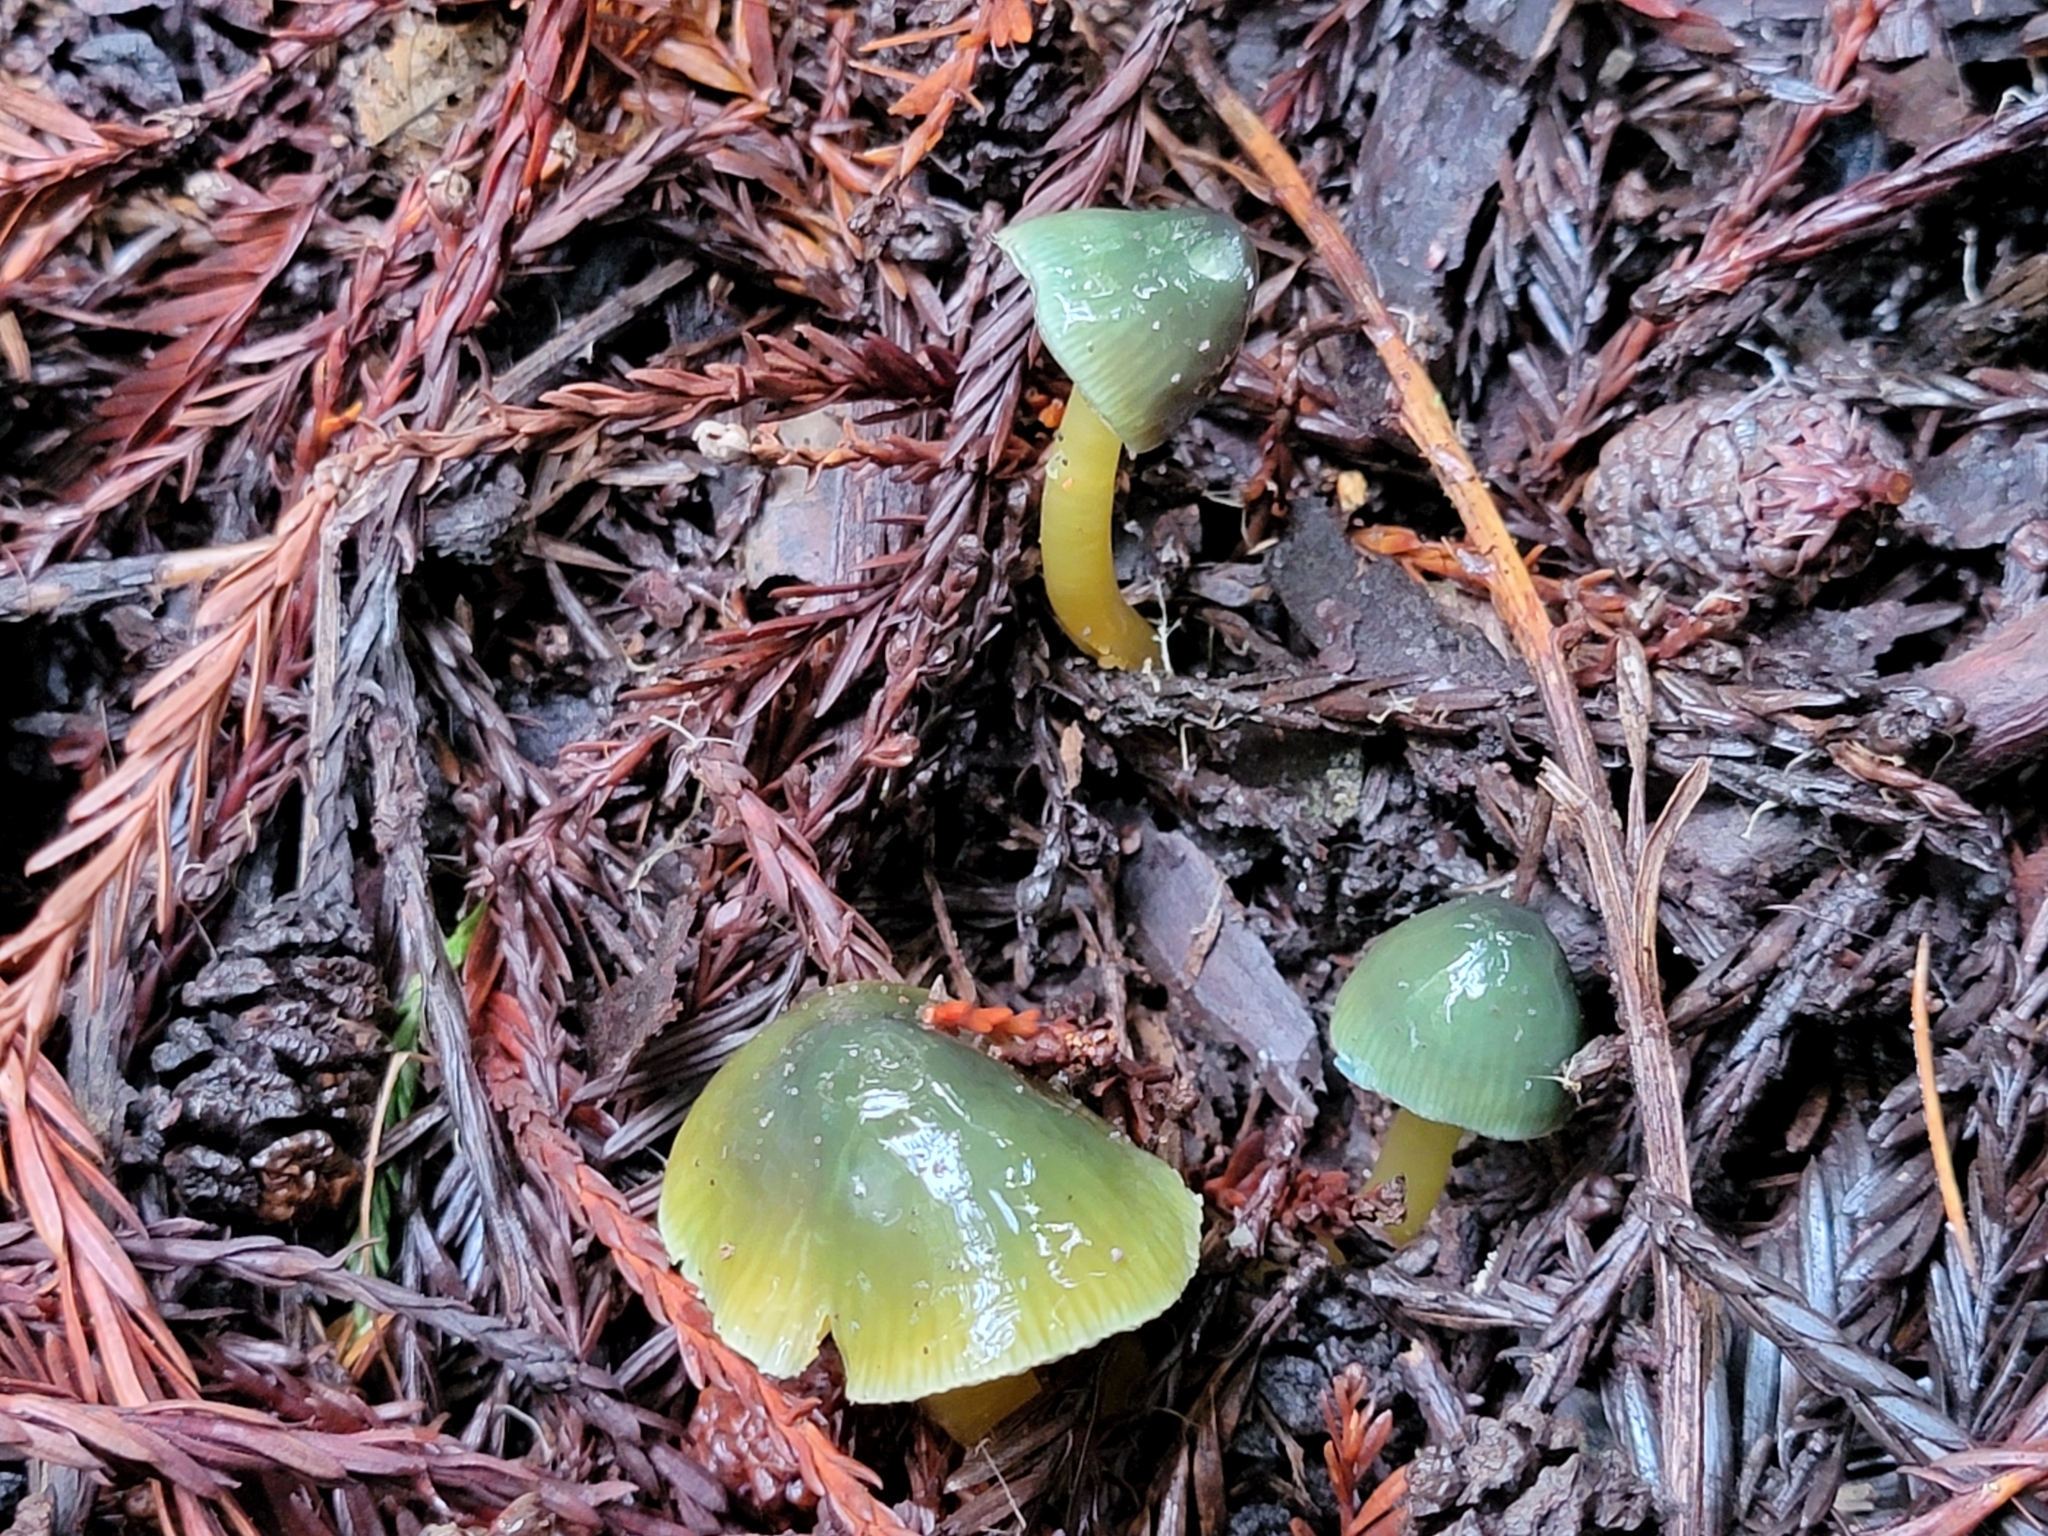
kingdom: Fungi
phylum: Basidiomycota
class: Agaricomycetes
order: Agaricales
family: Hygrophoraceae
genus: Gliophorus
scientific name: Gliophorus psittacinus
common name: Parrot wax-cap
